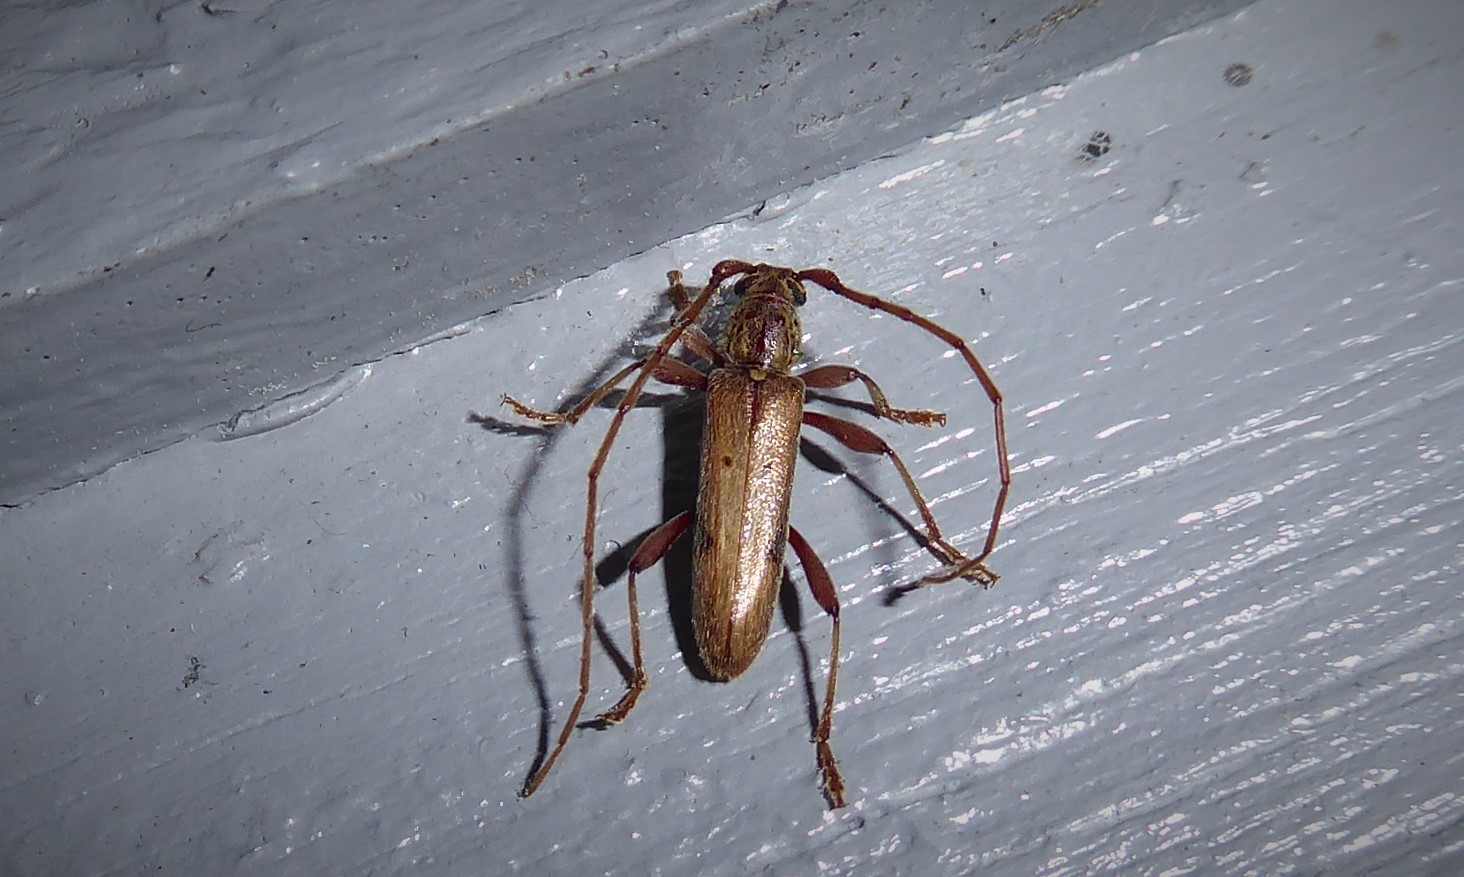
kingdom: Animalia
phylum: Arthropoda
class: Insecta
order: Coleoptera
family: Cerambycidae
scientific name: Cerambycidae
